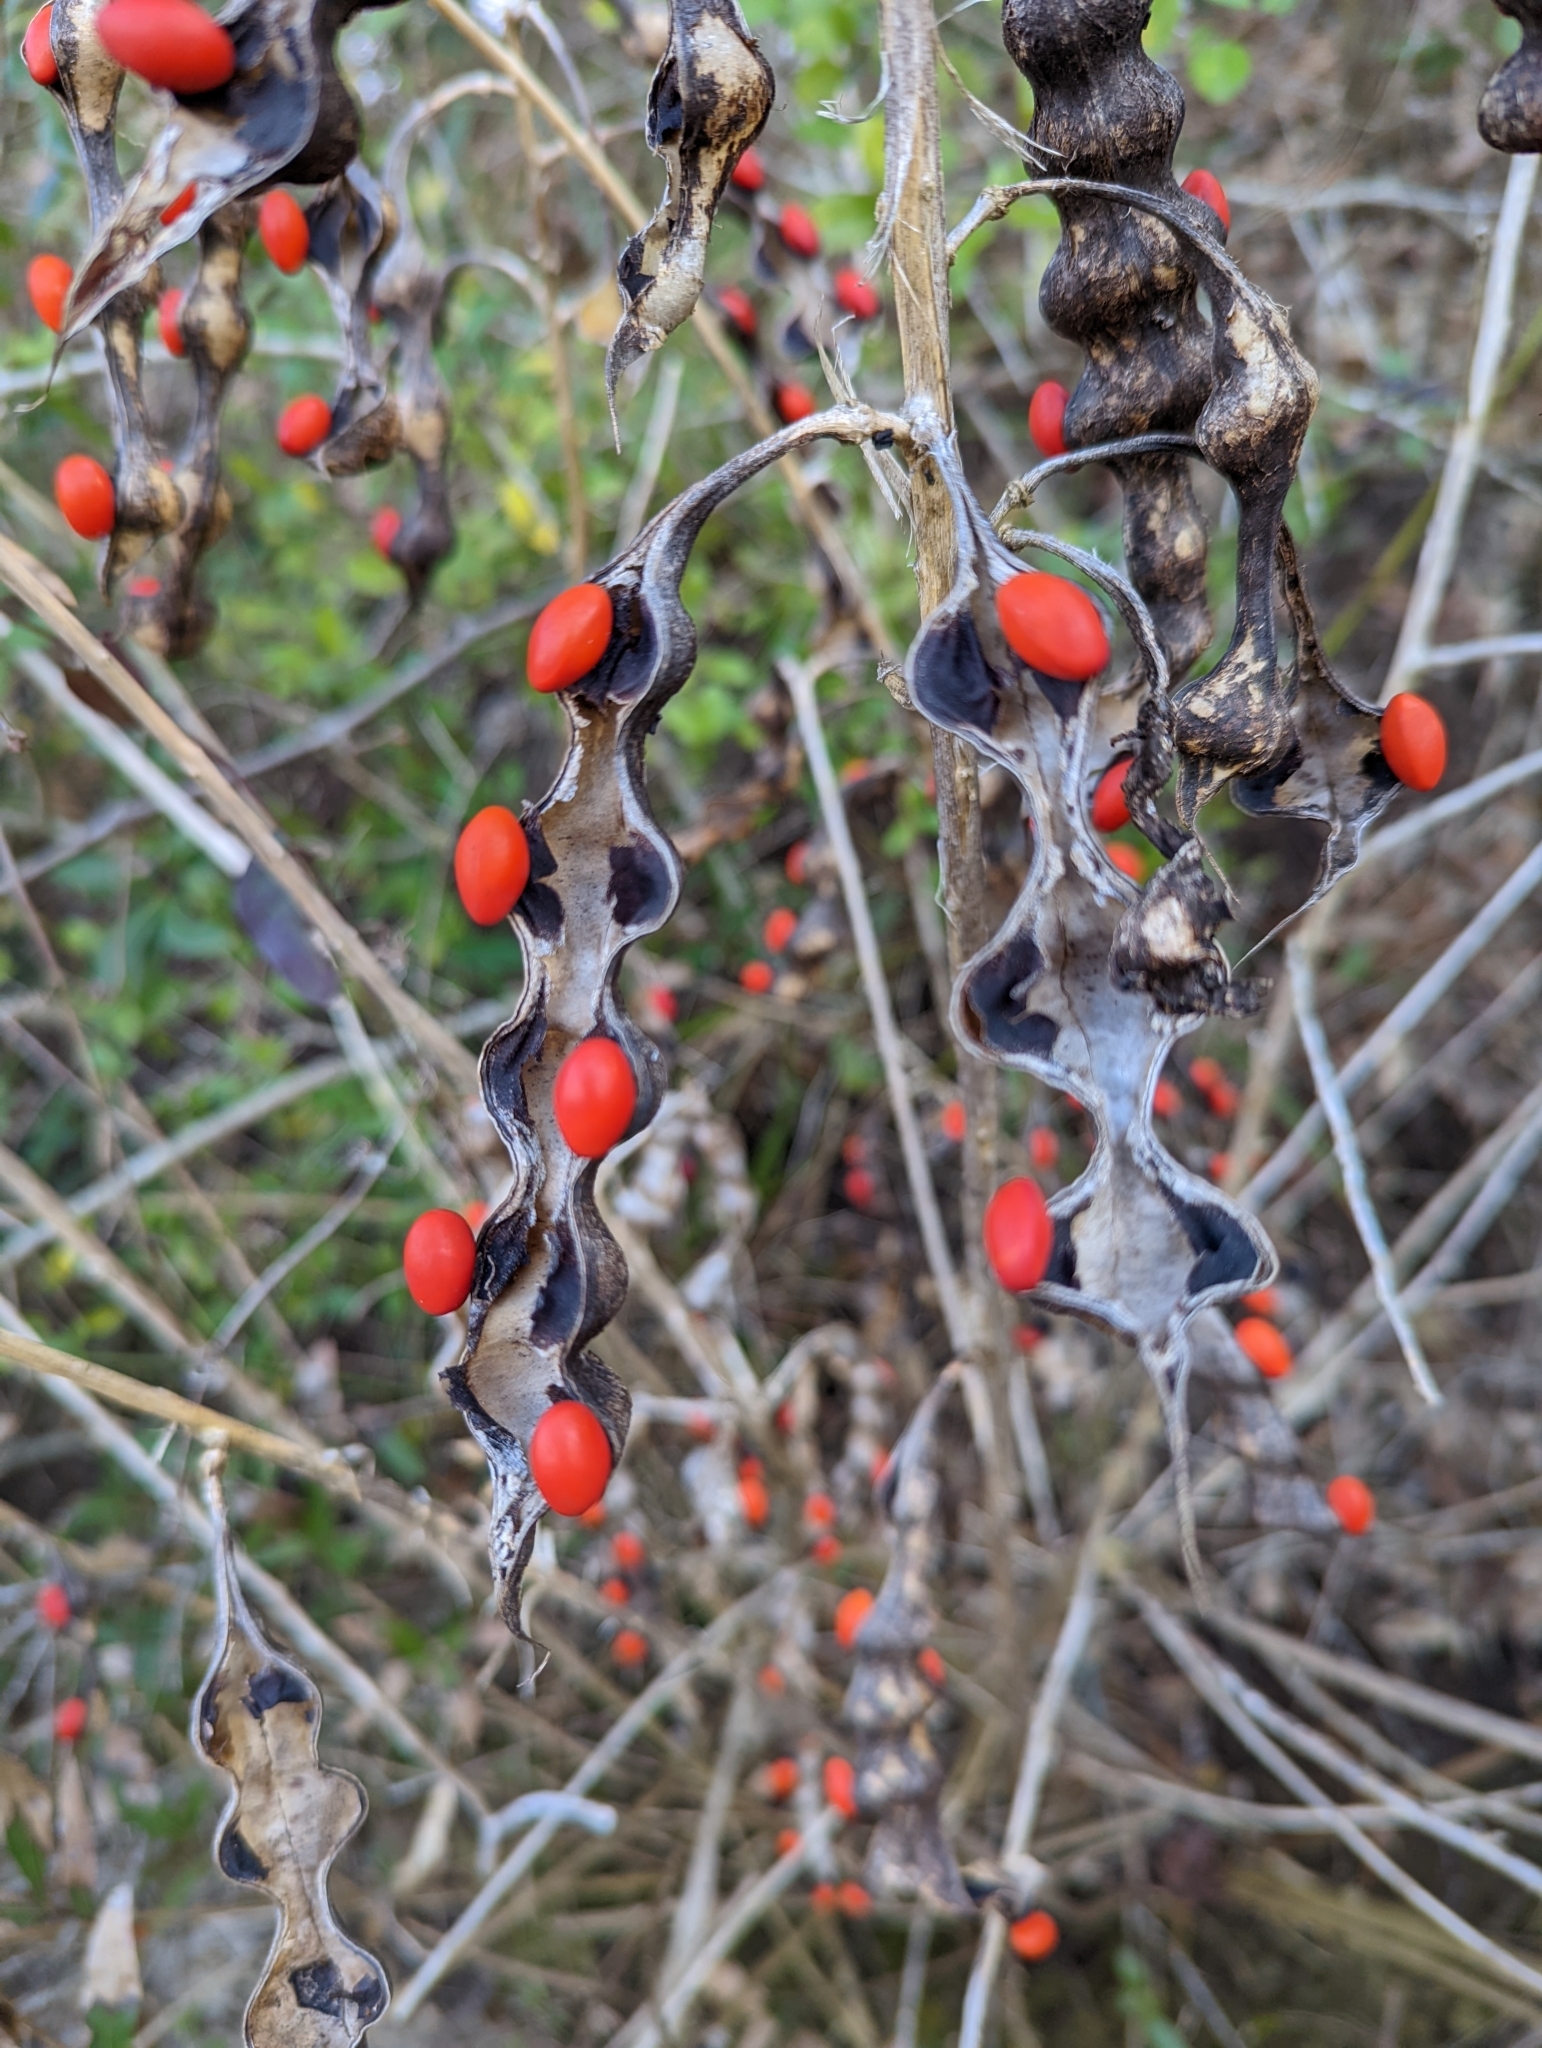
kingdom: Plantae
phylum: Tracheophyta
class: Magnoliopsida
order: Fabales
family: Fabaceae
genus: Erythrina
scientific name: Erythrina herbacea
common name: Coral-bean
